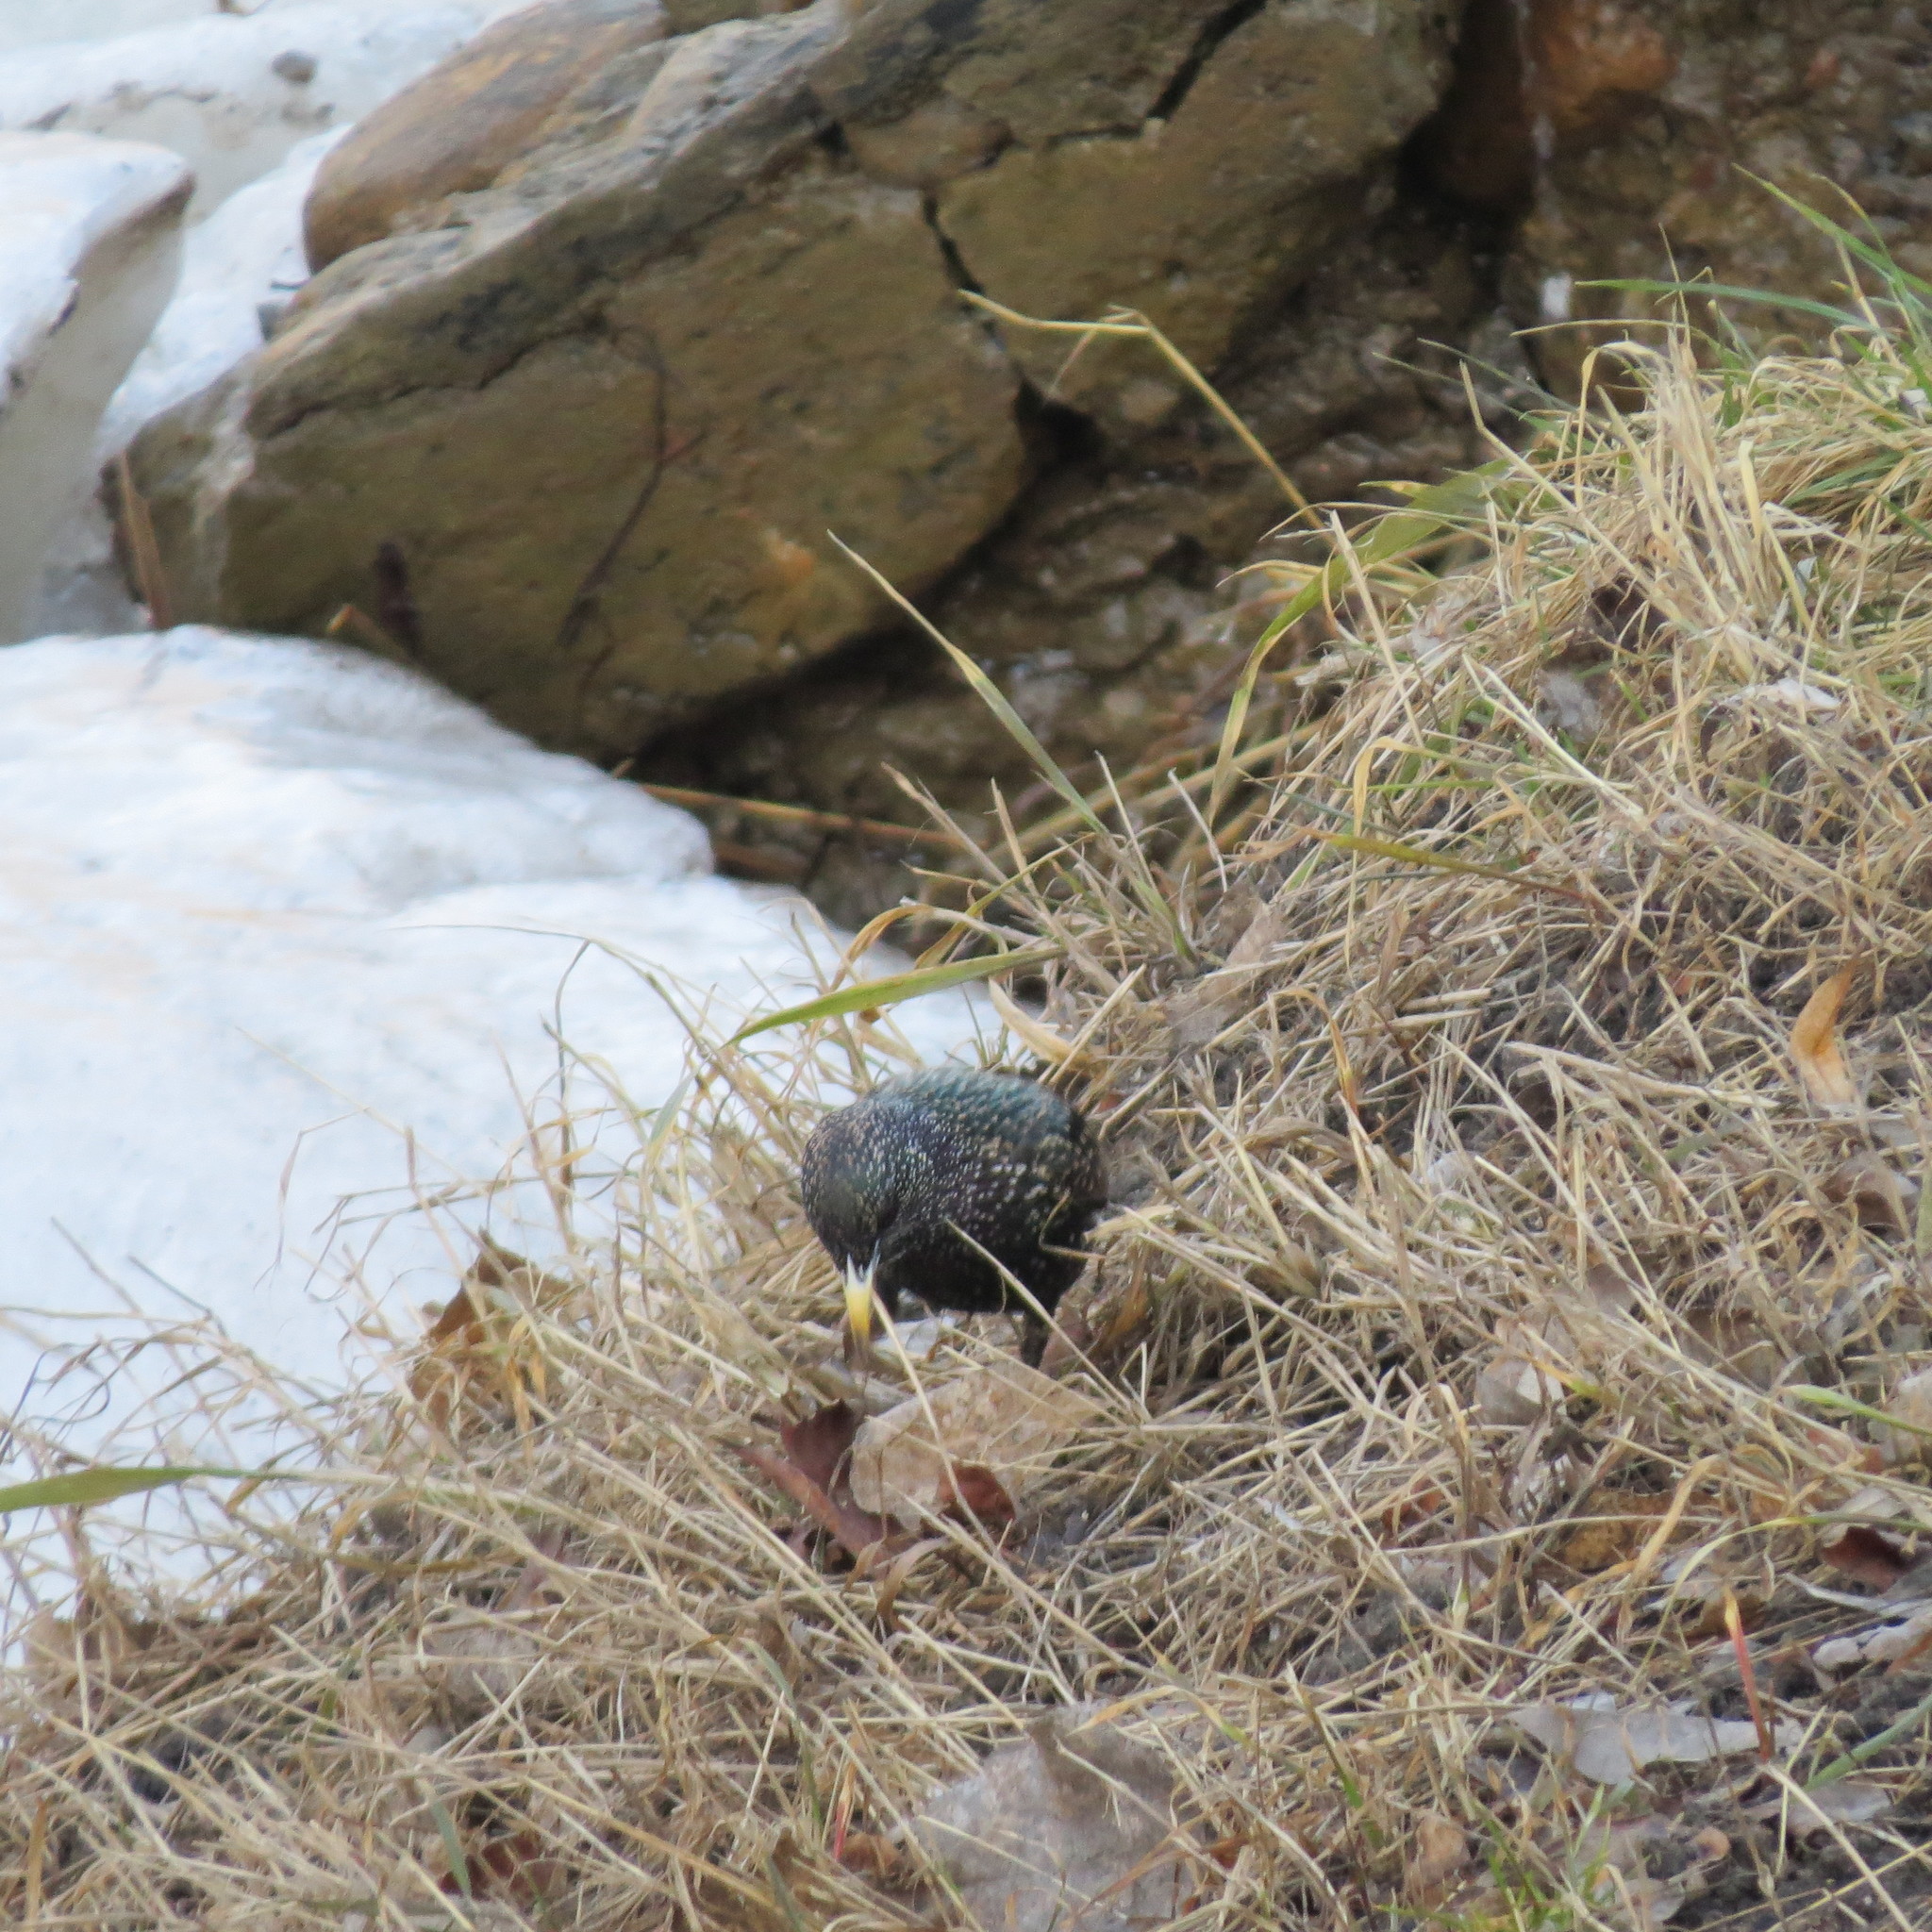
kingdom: Animalia
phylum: Chordata
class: Aves
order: Passeriformes
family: Sturnidae
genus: Sturnus
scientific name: Sturnus vulgaris
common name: Common starling
